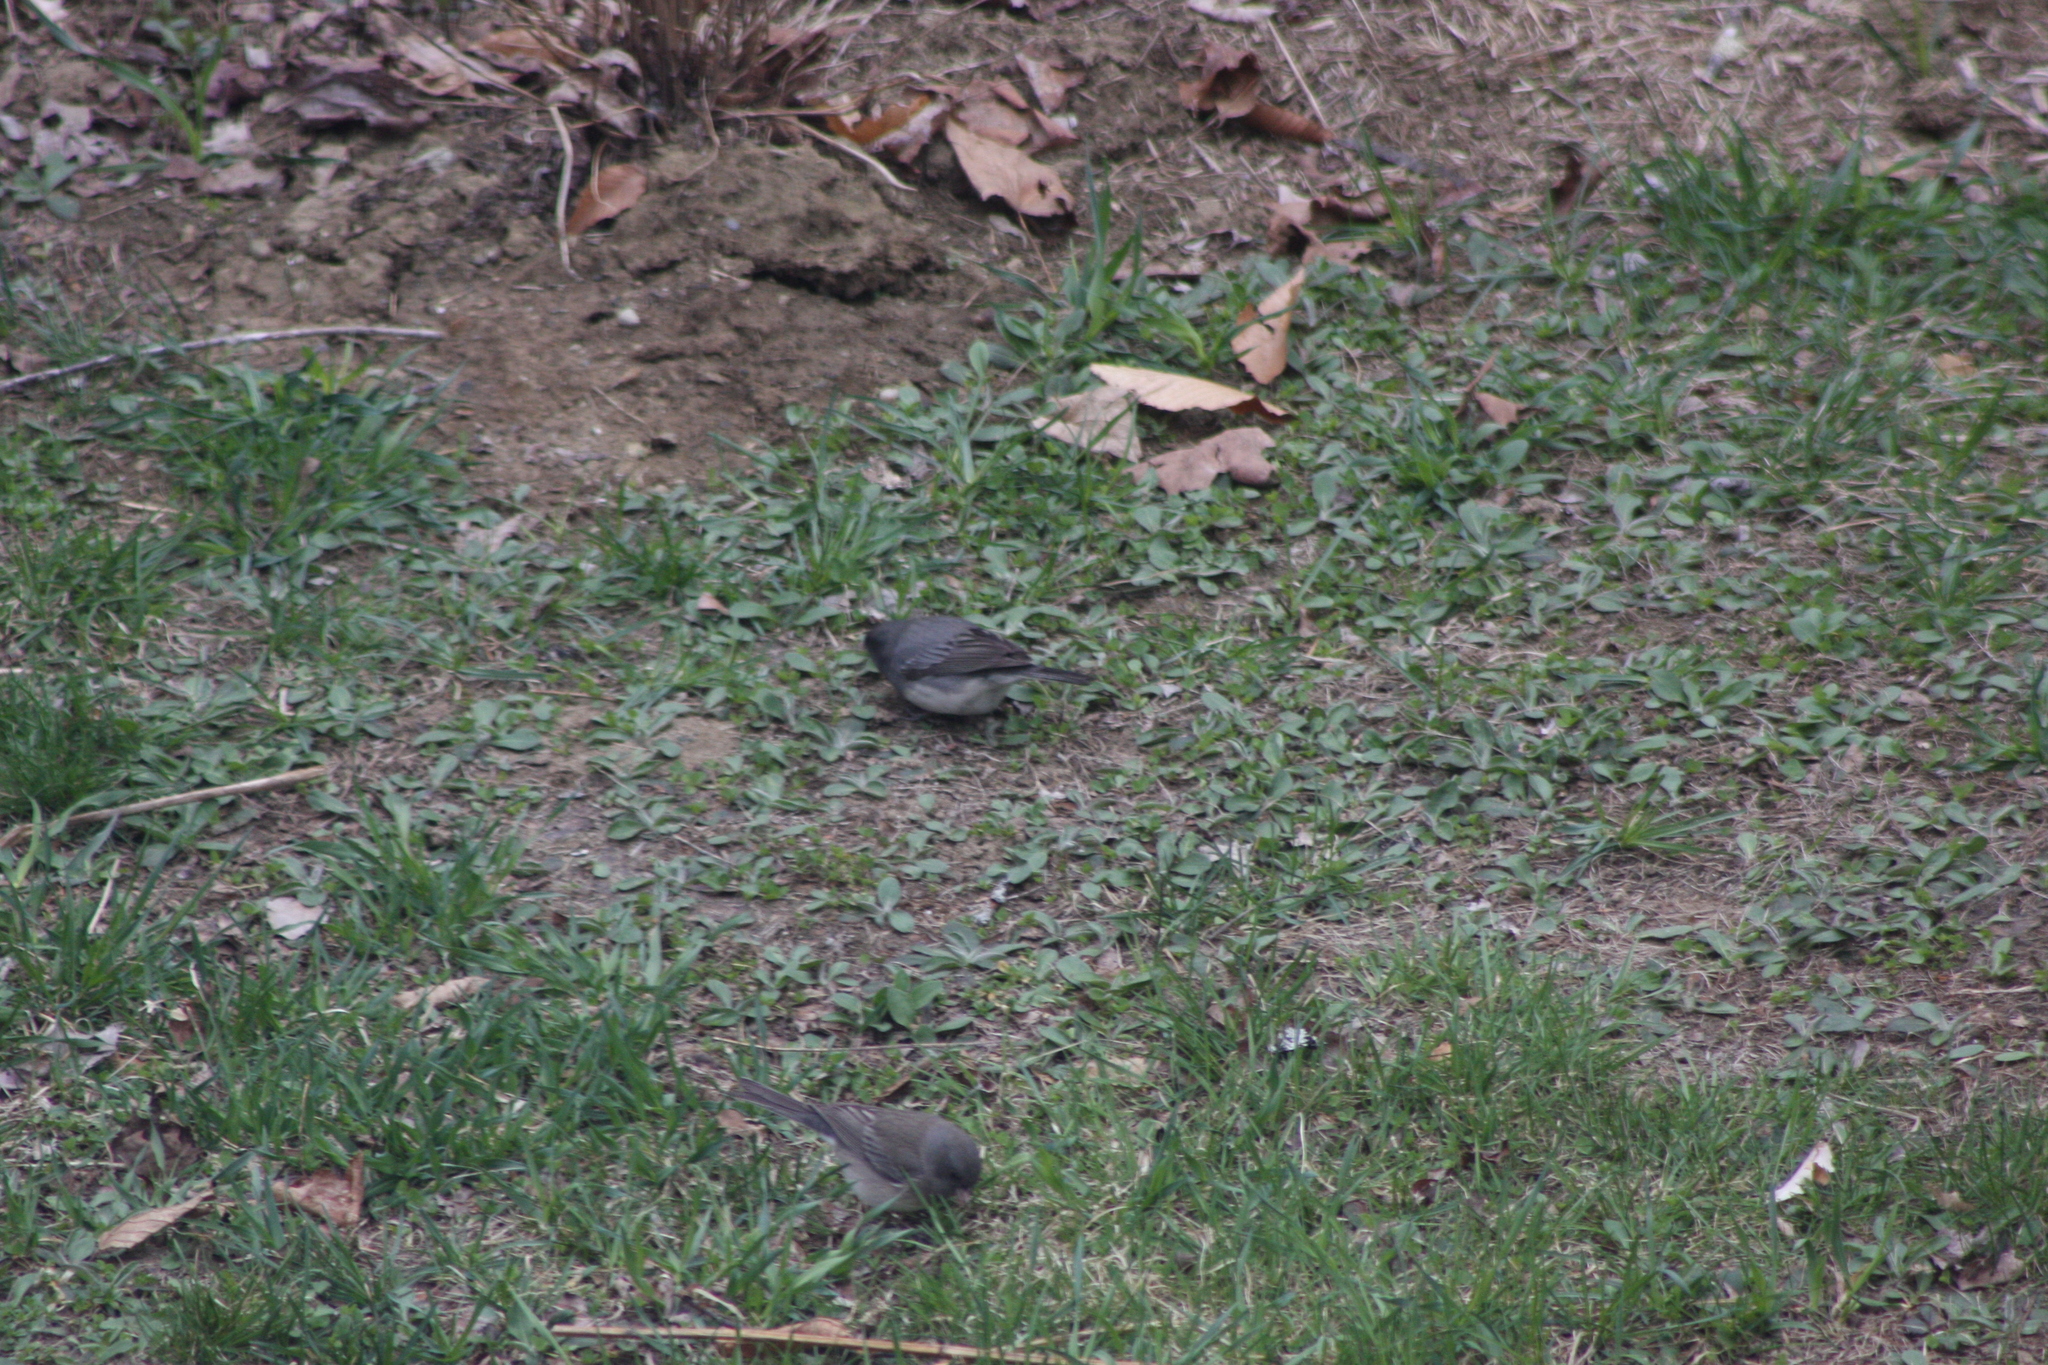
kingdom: Animalia
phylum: Chordata
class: Aves
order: Passeriformes
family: Passerellidae
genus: Junco
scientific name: Junco hyemalis
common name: Dark-eyed junco
